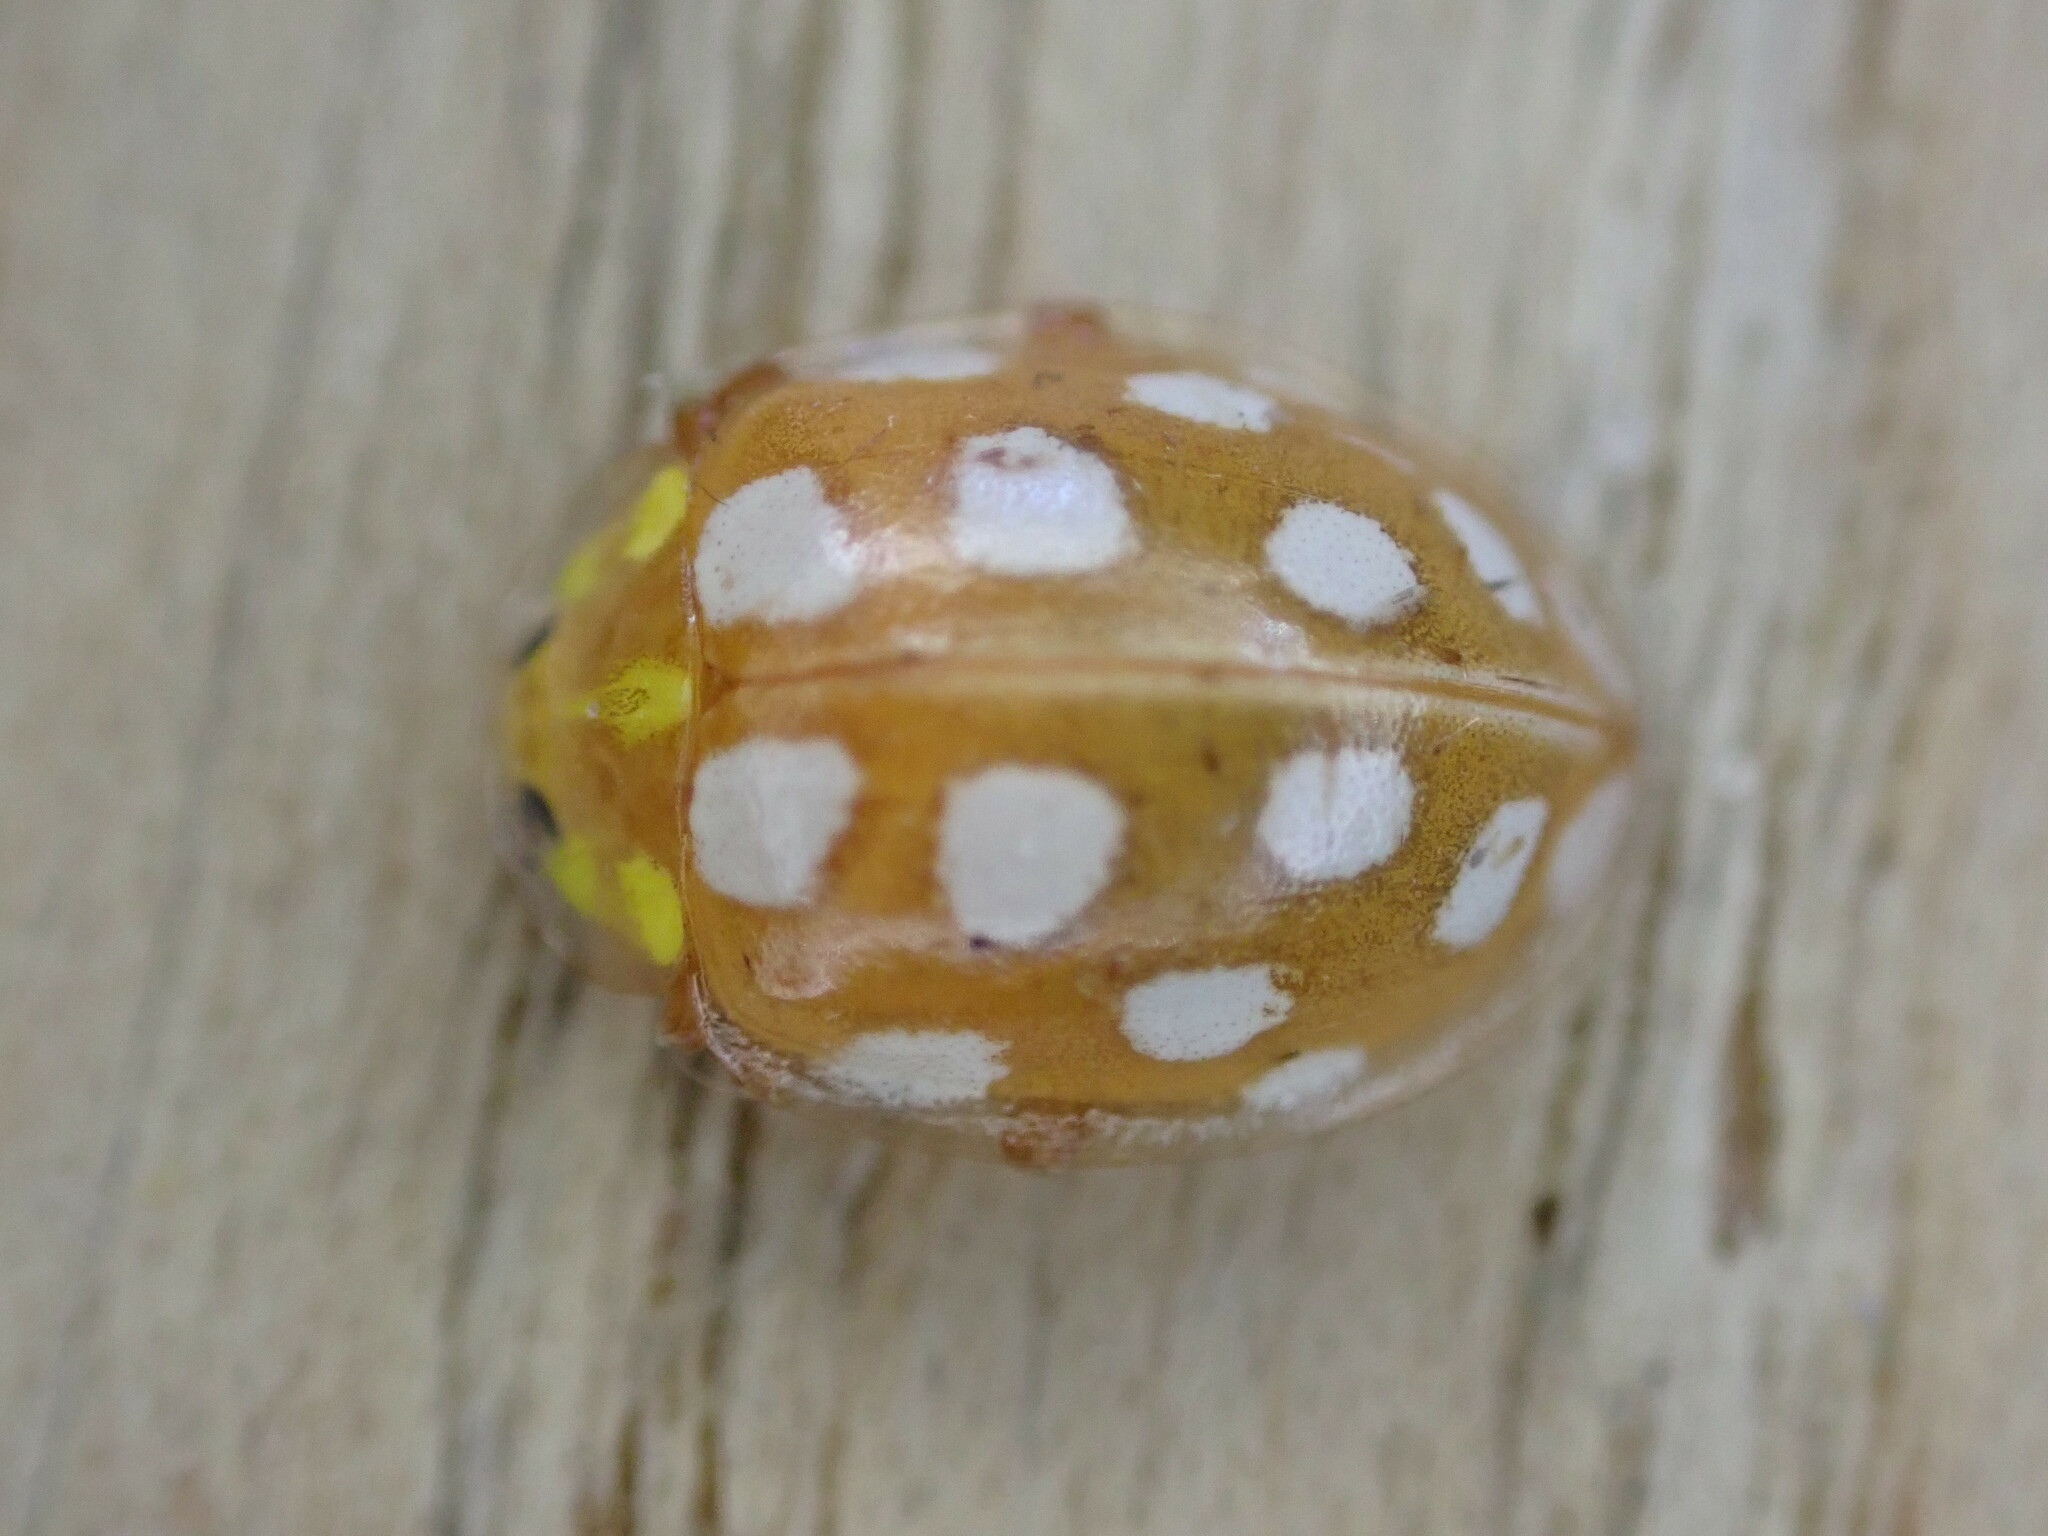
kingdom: Animalia
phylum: Arthropoda
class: Insecta
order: Coleoptera
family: Coccinellidae
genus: Halyzia
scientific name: Halyzia sedecimguttata
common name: Orange ladybird
